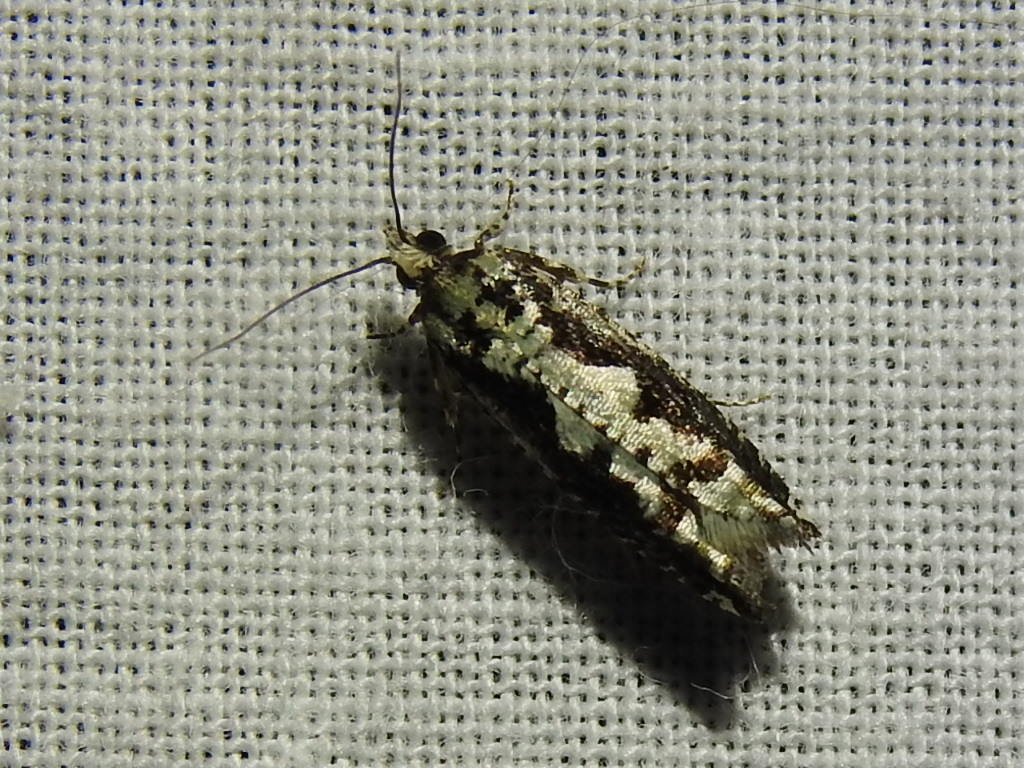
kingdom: Animalia
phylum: Arthropoda
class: Insecta
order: Lepidoptera
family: Tortricidae
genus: Chimoptesis
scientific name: Chimoptesis pennsylvaniana
